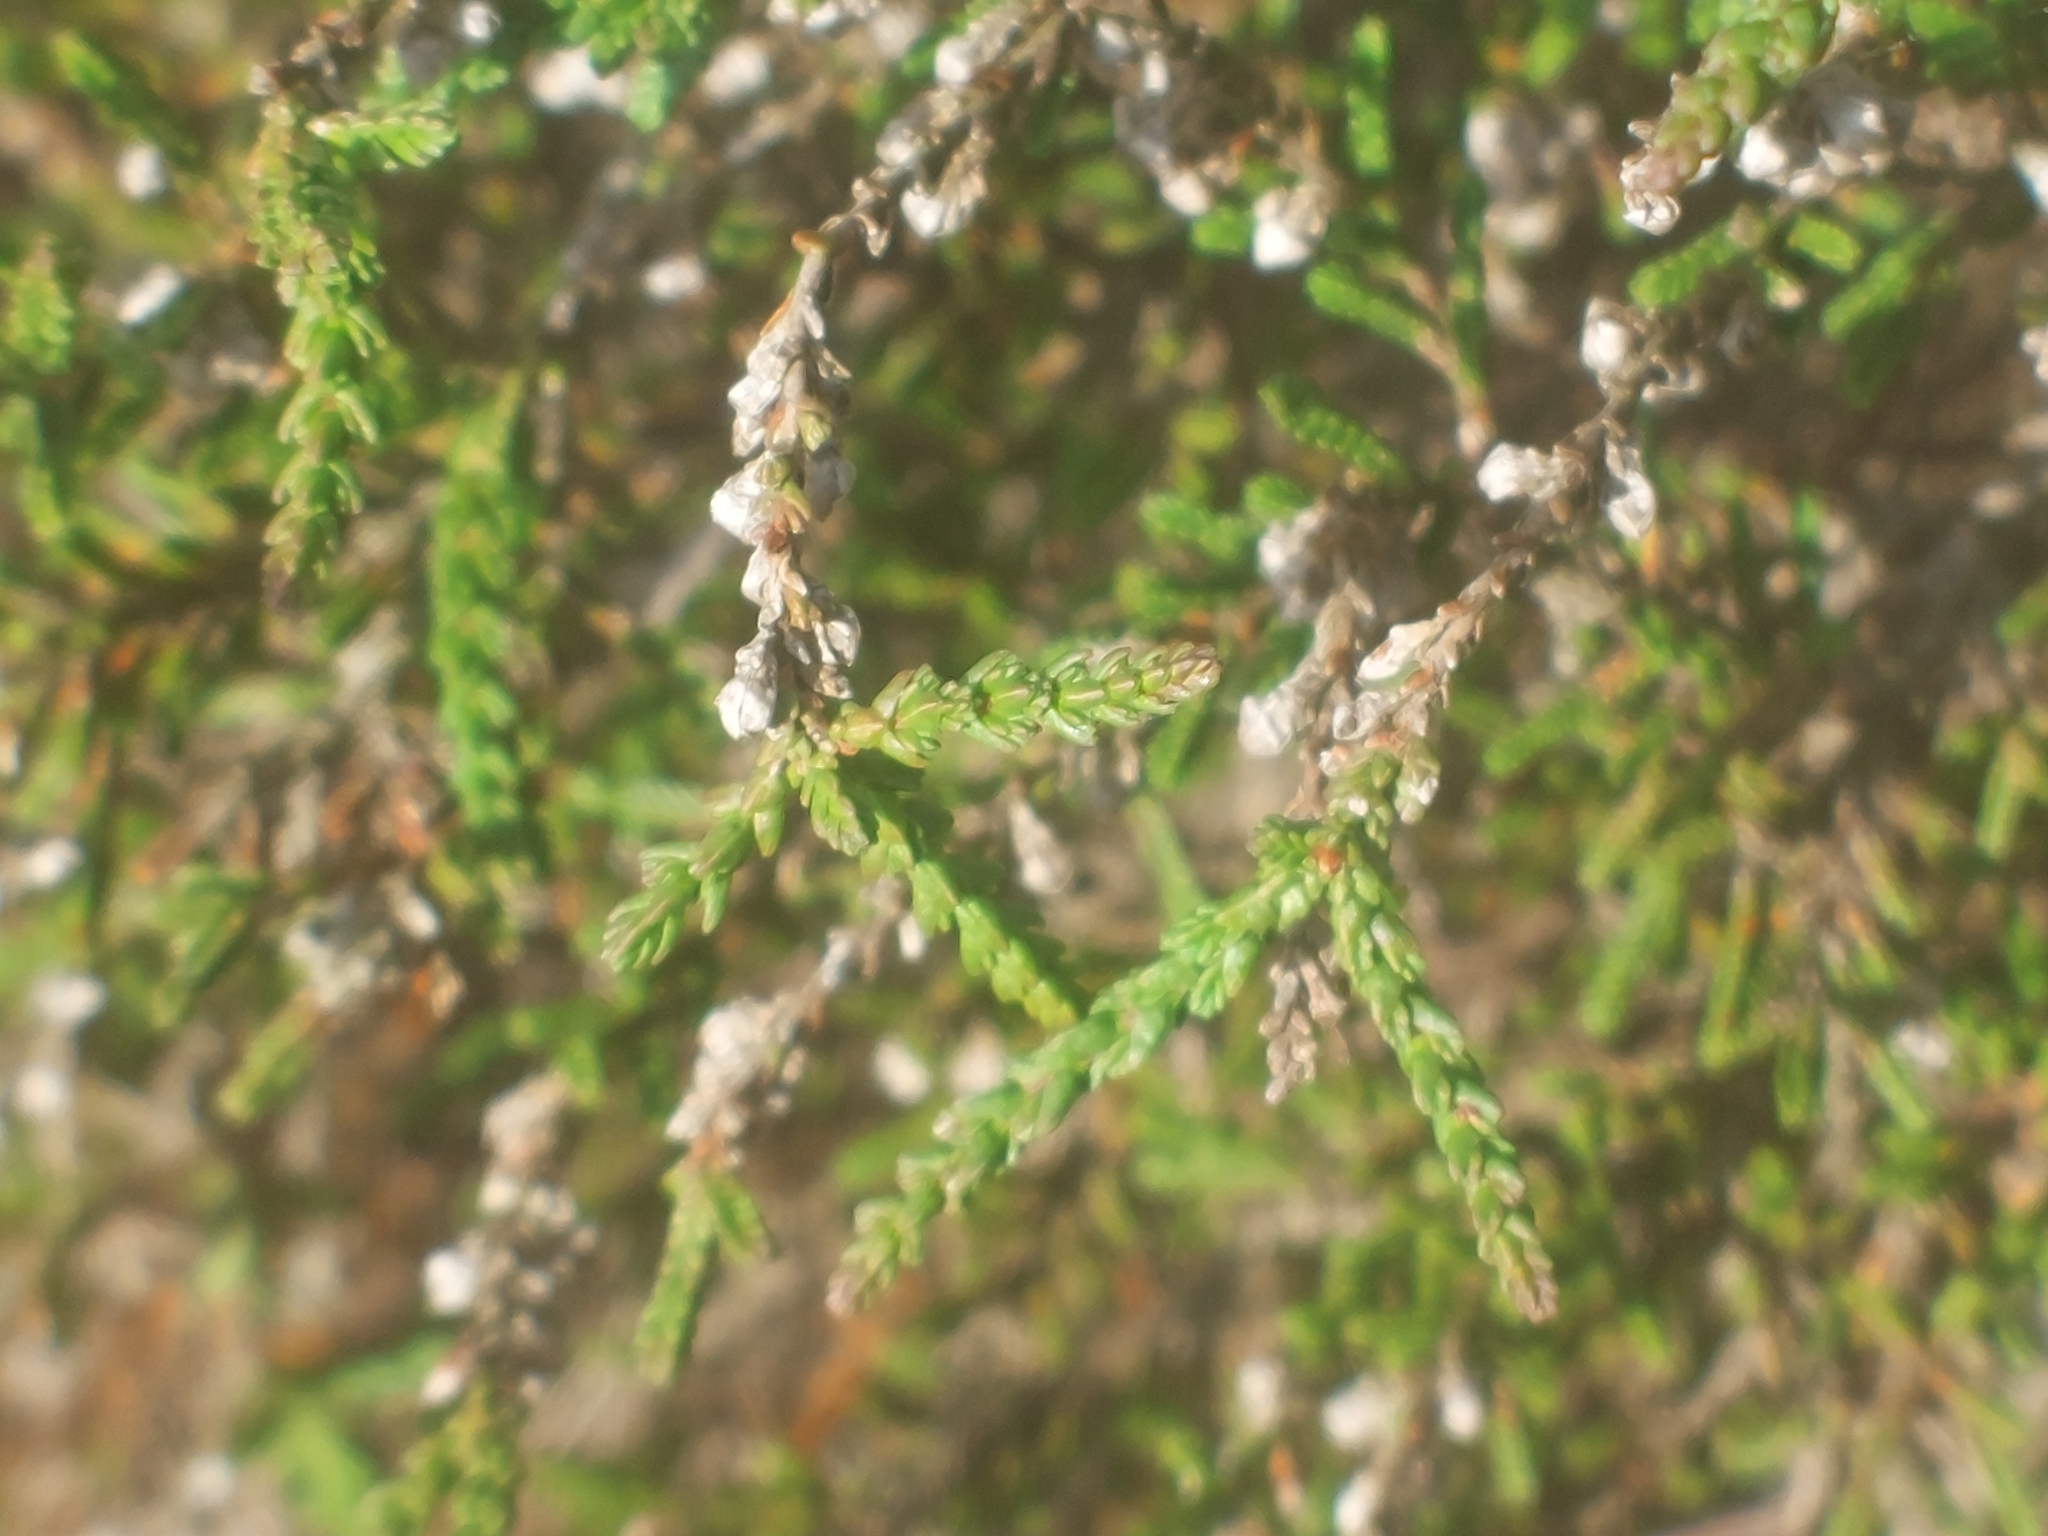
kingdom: Plantae
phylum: Tracheophyta
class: Magnoliopsida
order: Ericales
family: Ericaceae
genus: Calluna
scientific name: Calluna vulgaris
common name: Heather
